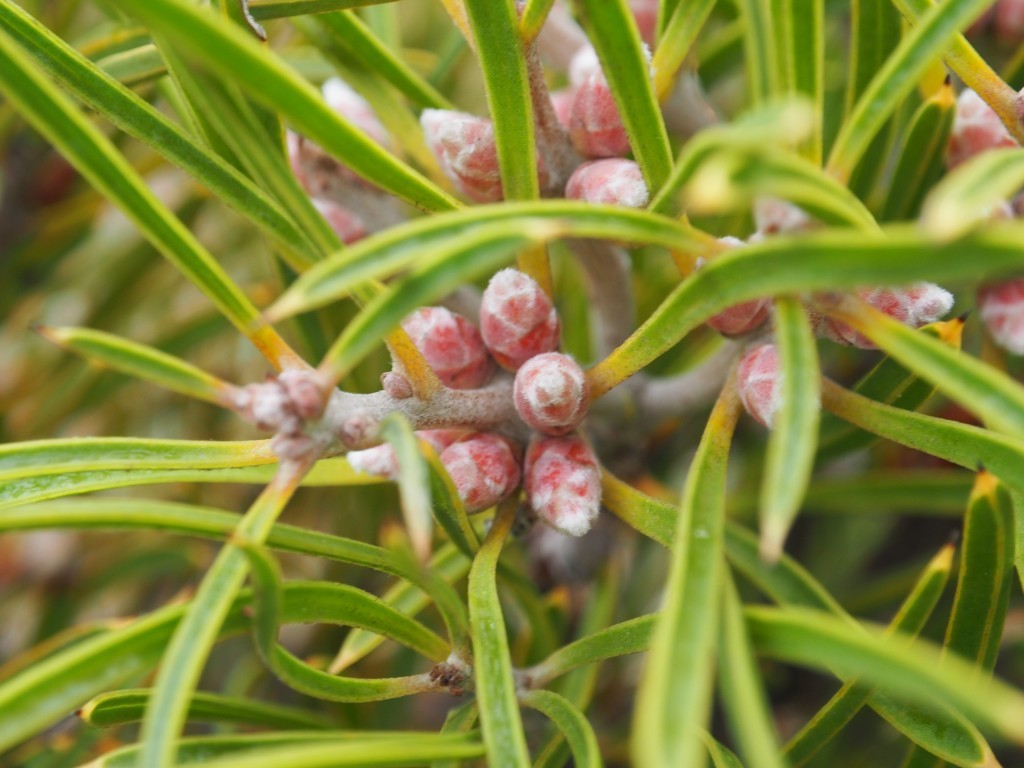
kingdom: Plantae
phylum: Tracheophyta
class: Magnoliopsida
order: Proteales
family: Proteaceae
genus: Hakea
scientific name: Hakea corymbosa
